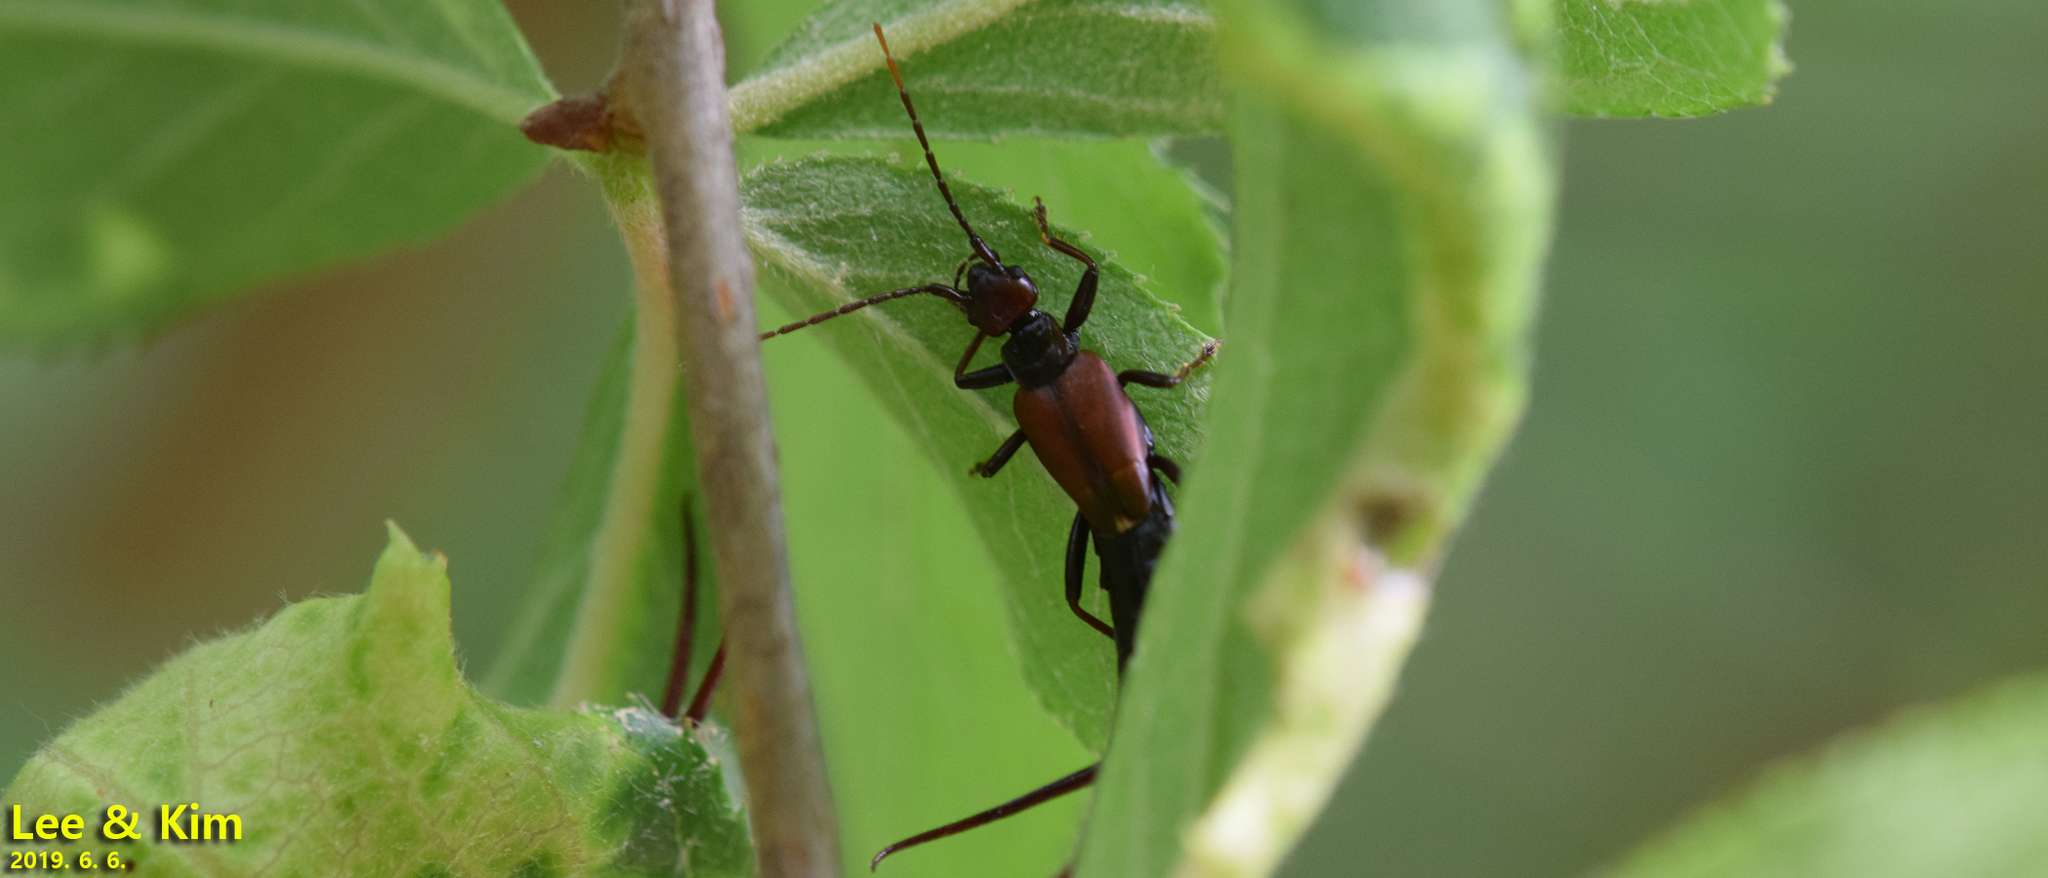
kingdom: Animalia
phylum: Arthropoda
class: Insecta
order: Dermaptera
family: Forficulidae
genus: Timomenus
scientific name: Timomenus komarovi
